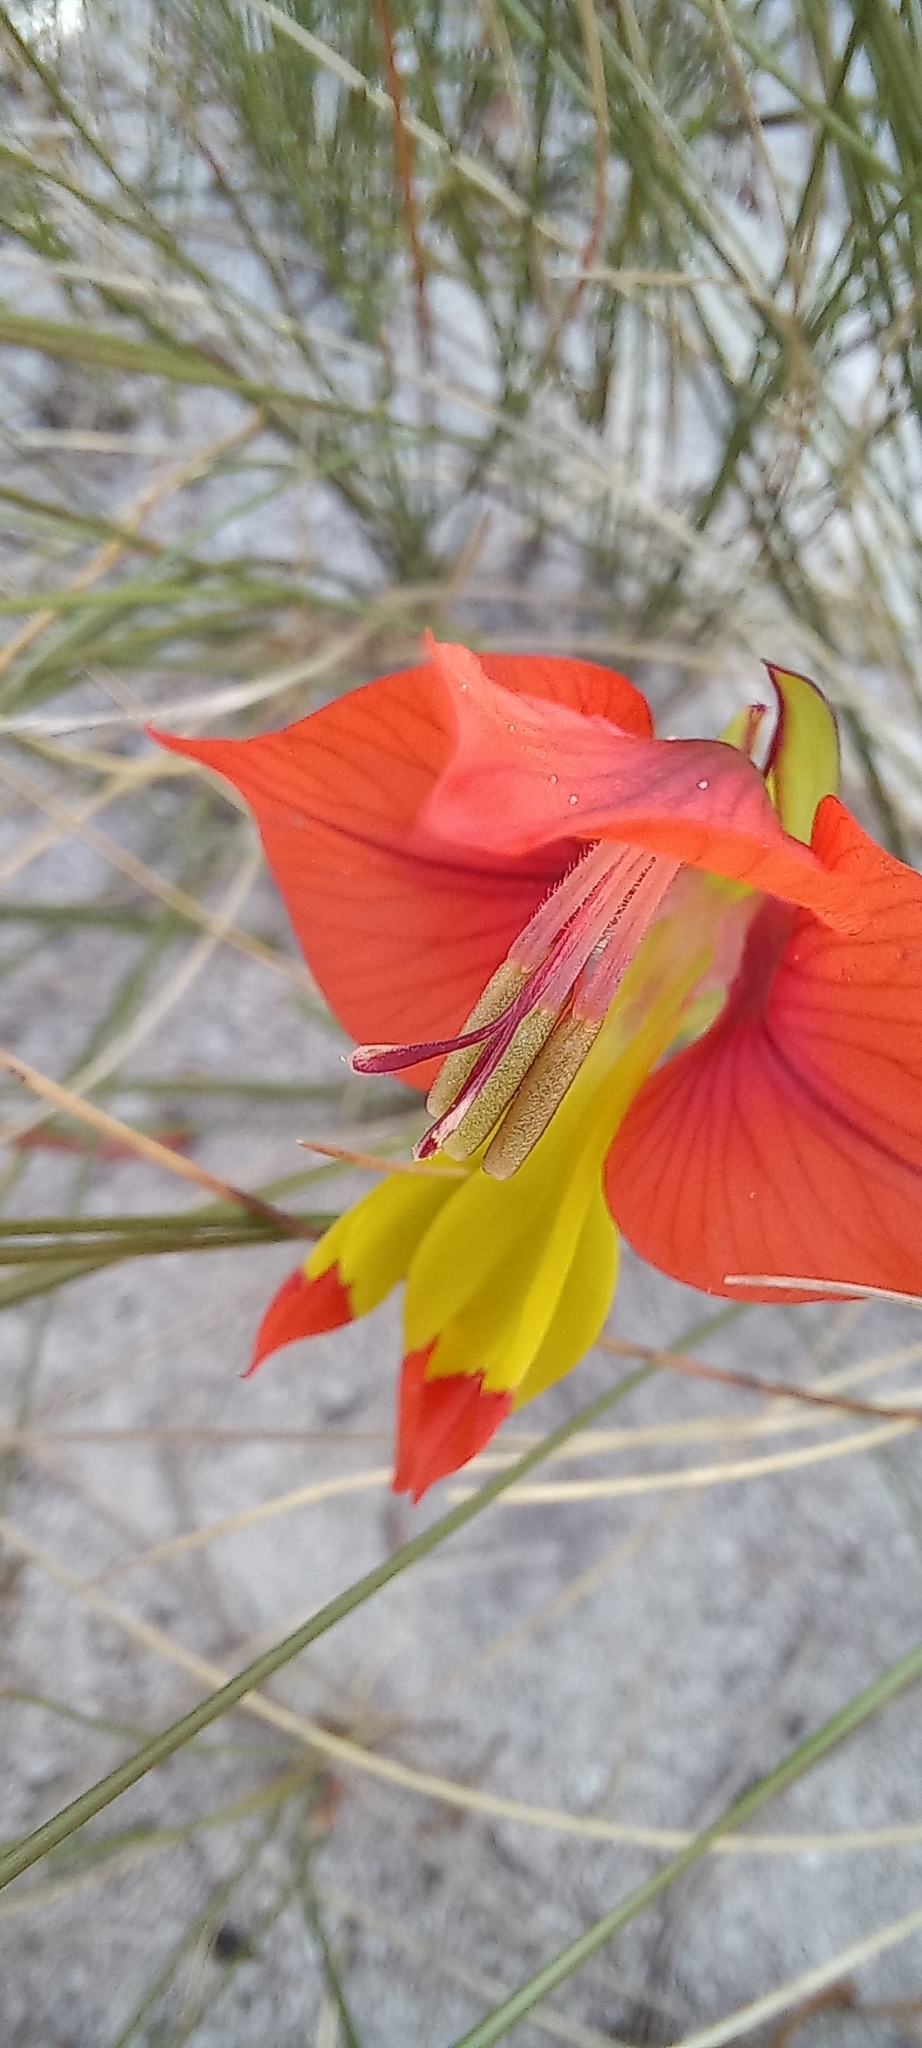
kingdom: Plantae
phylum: Tracheophyta
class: Liliopsida
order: Asparagales
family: Iridaceae
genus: Gladiolus
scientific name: Gladiolus alatus
